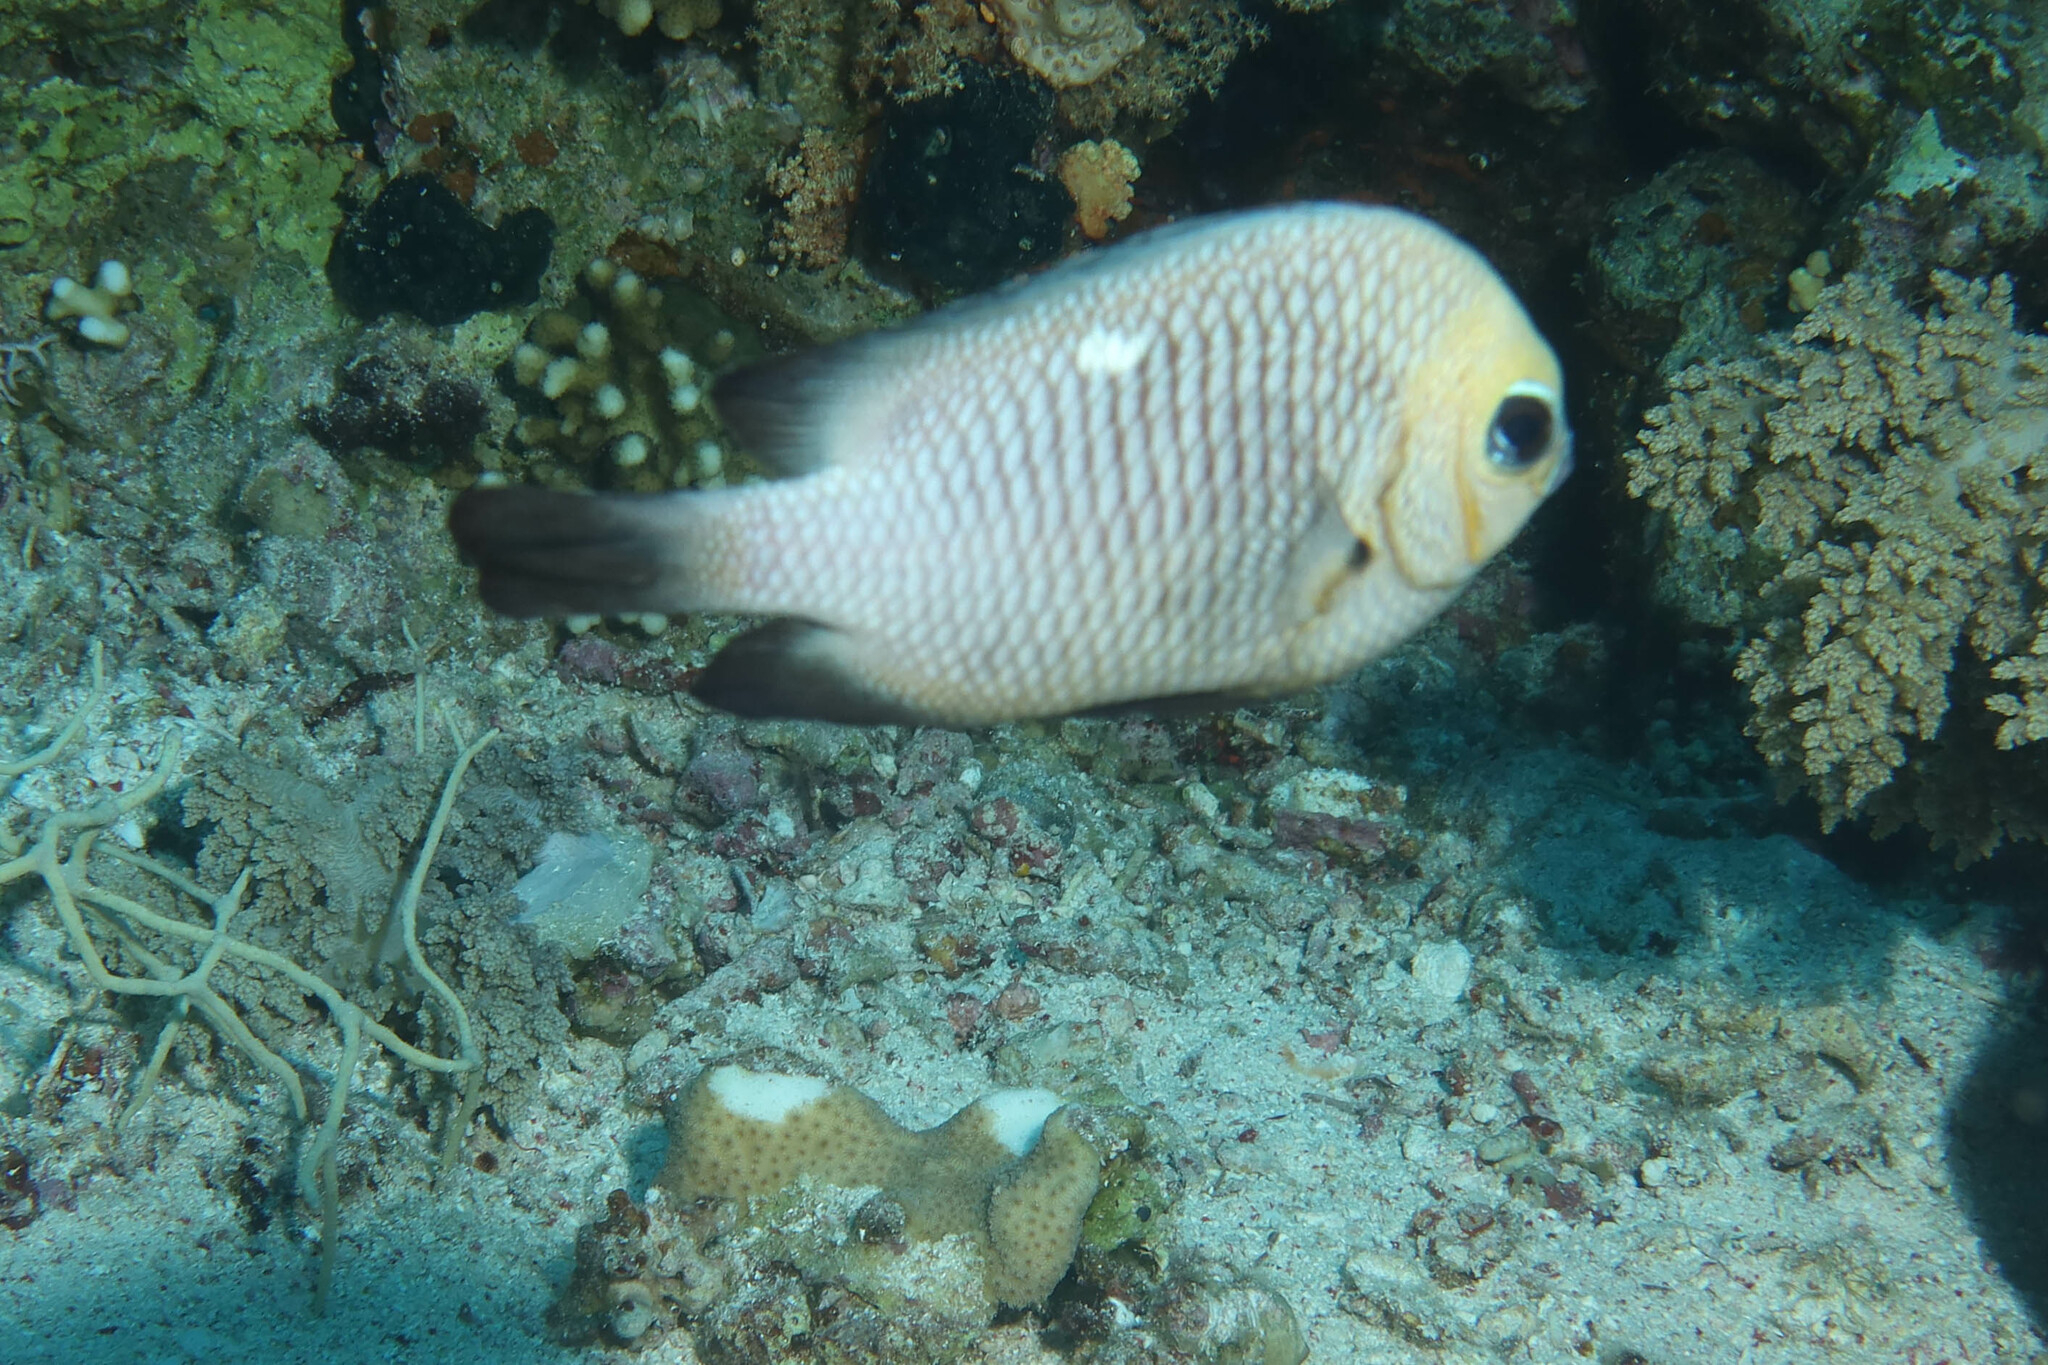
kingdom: Animalia
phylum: Chordata
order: Perciformes
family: Pomacentridae
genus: Dascyllus
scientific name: Dascyllus trimaculatus
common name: Threespot dascyllus
